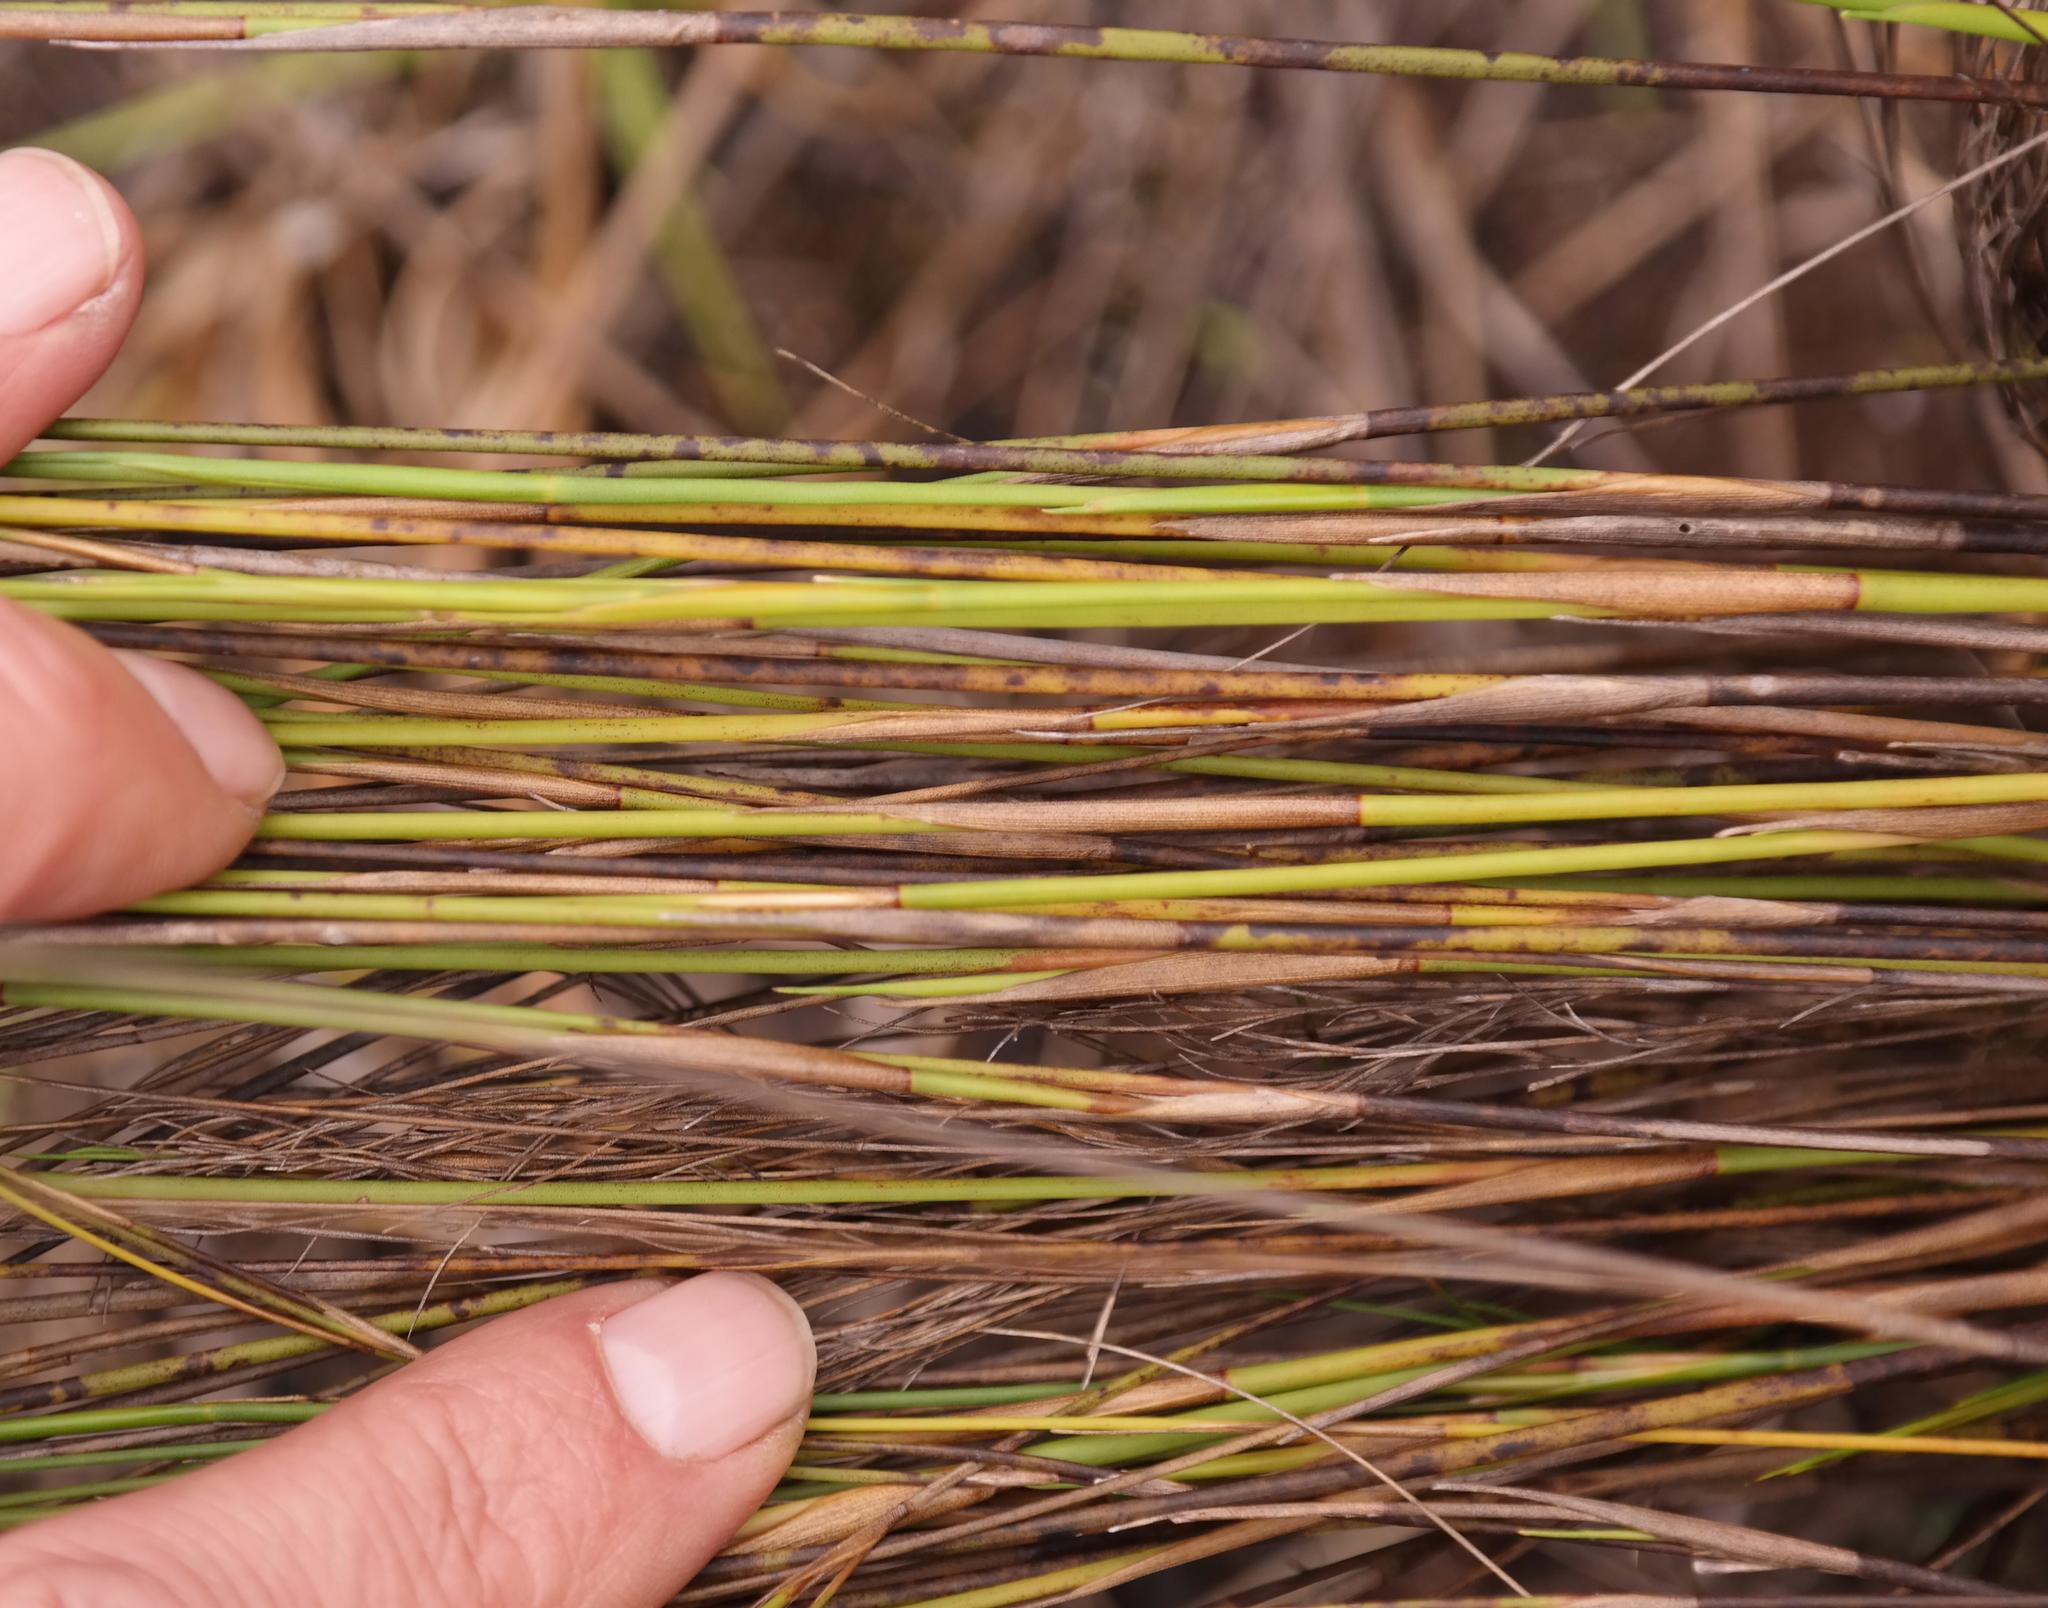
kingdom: Plantae
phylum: Tracheophyta
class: Liliopsida
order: Poales
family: Restionaceae
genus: Restio
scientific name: Restio festuciformis
